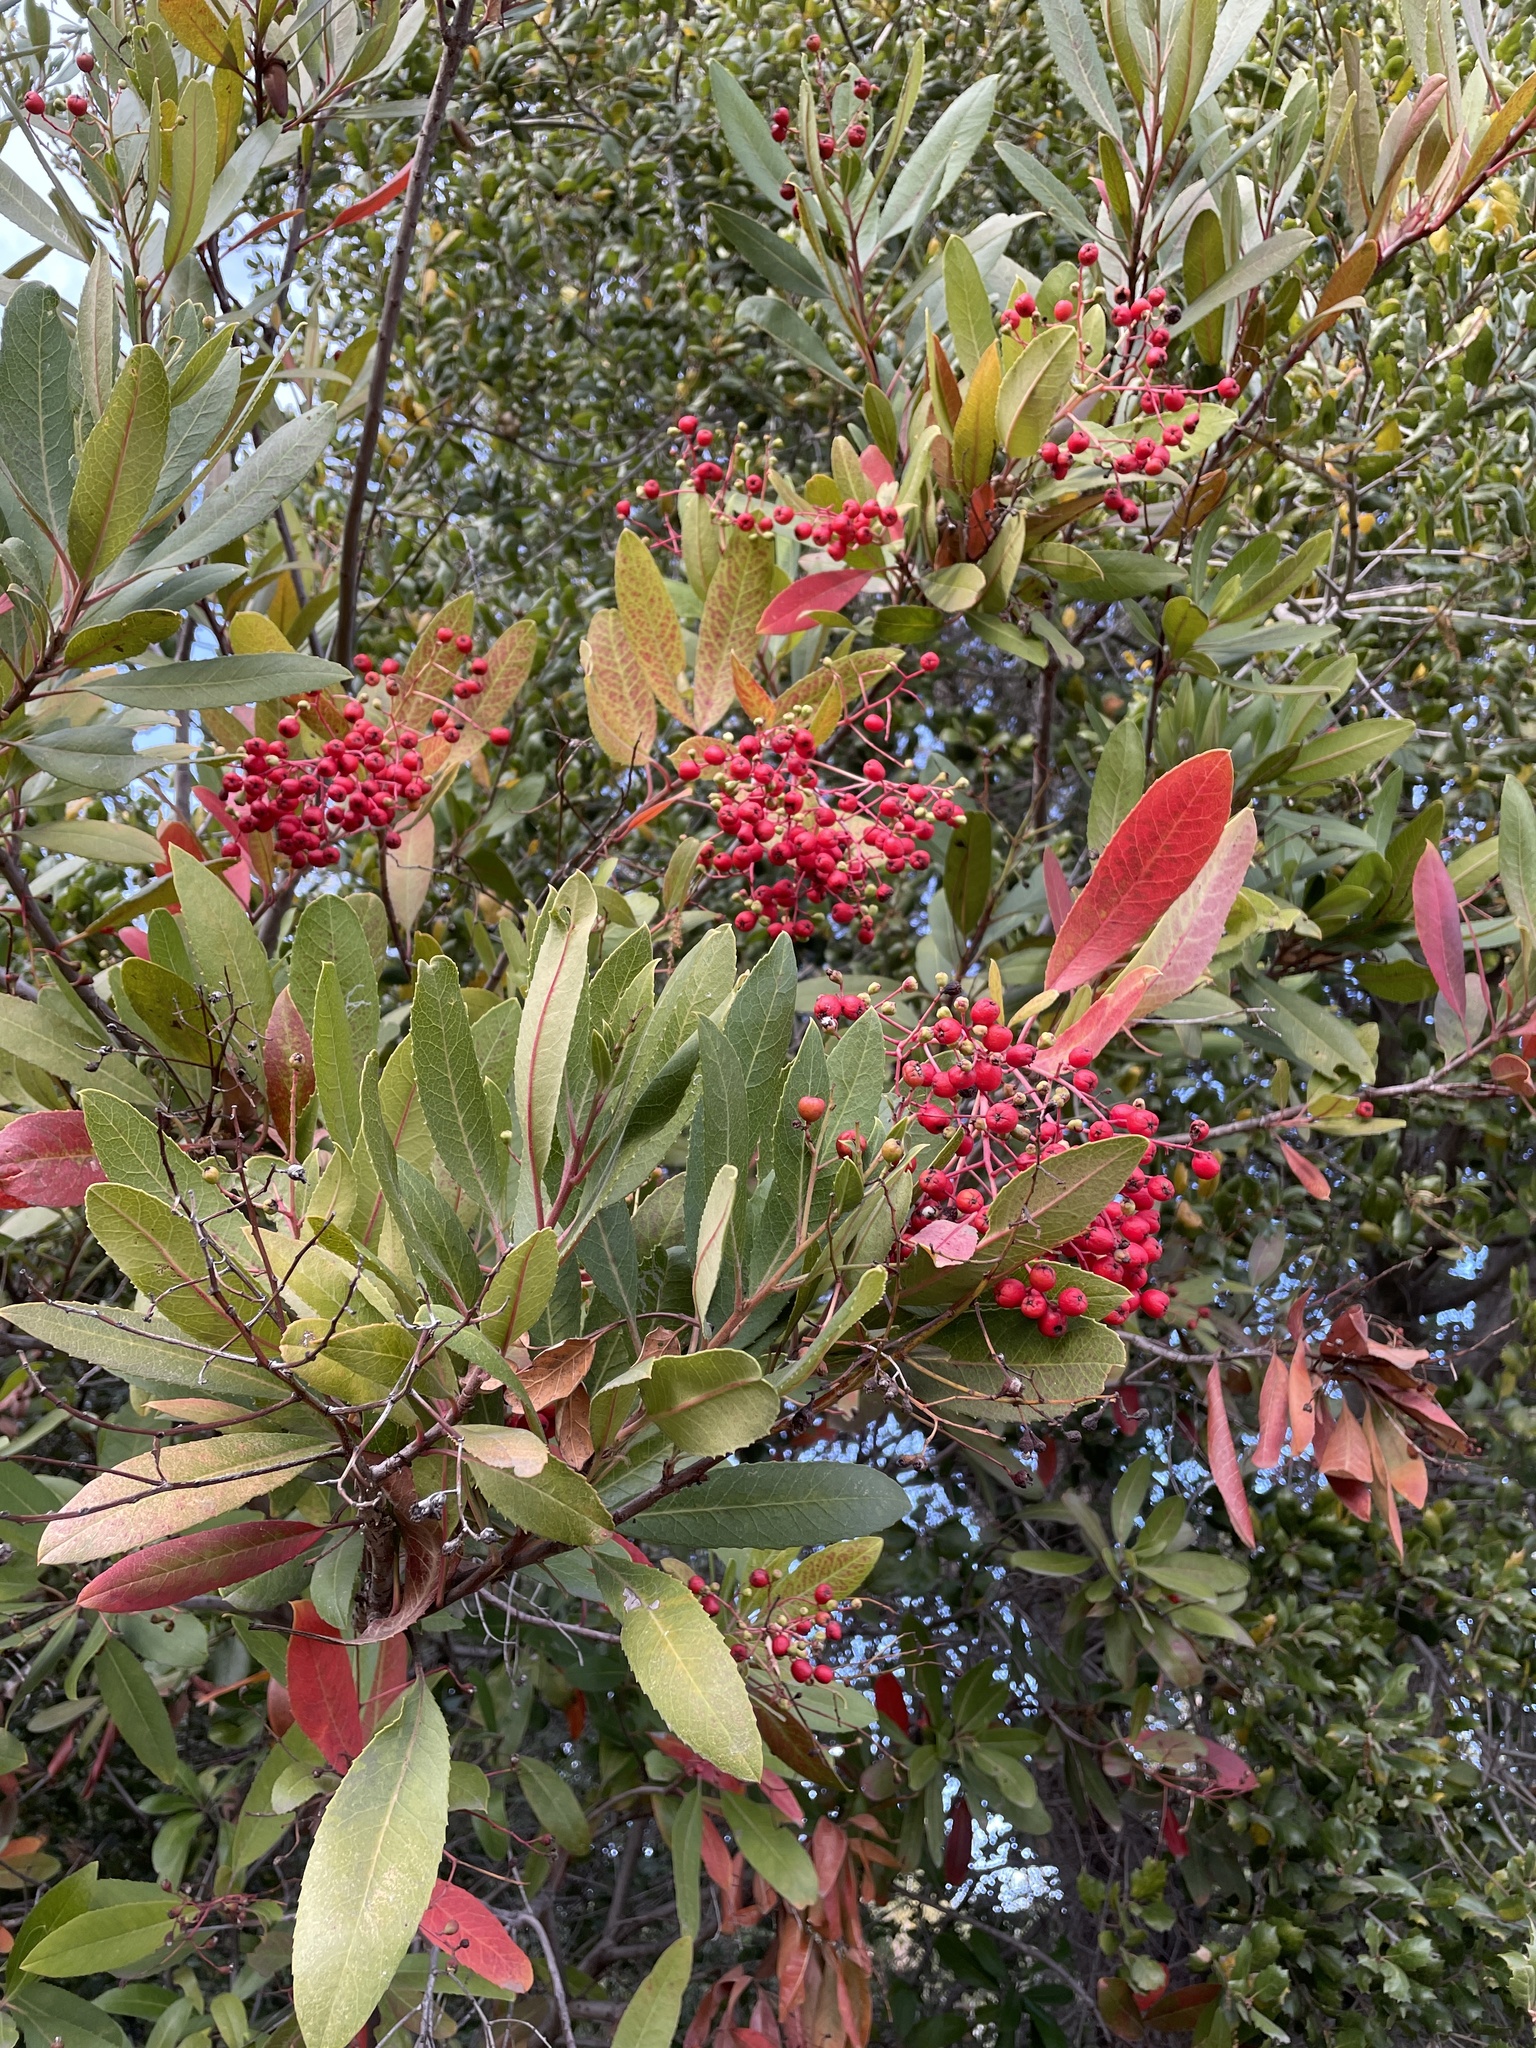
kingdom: Plantae
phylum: Tracheophyta
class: Magnoliopsida
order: Rosales
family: Rosaceae
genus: Heteromeles
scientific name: Heteromeles arbutifolia
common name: California-holly
